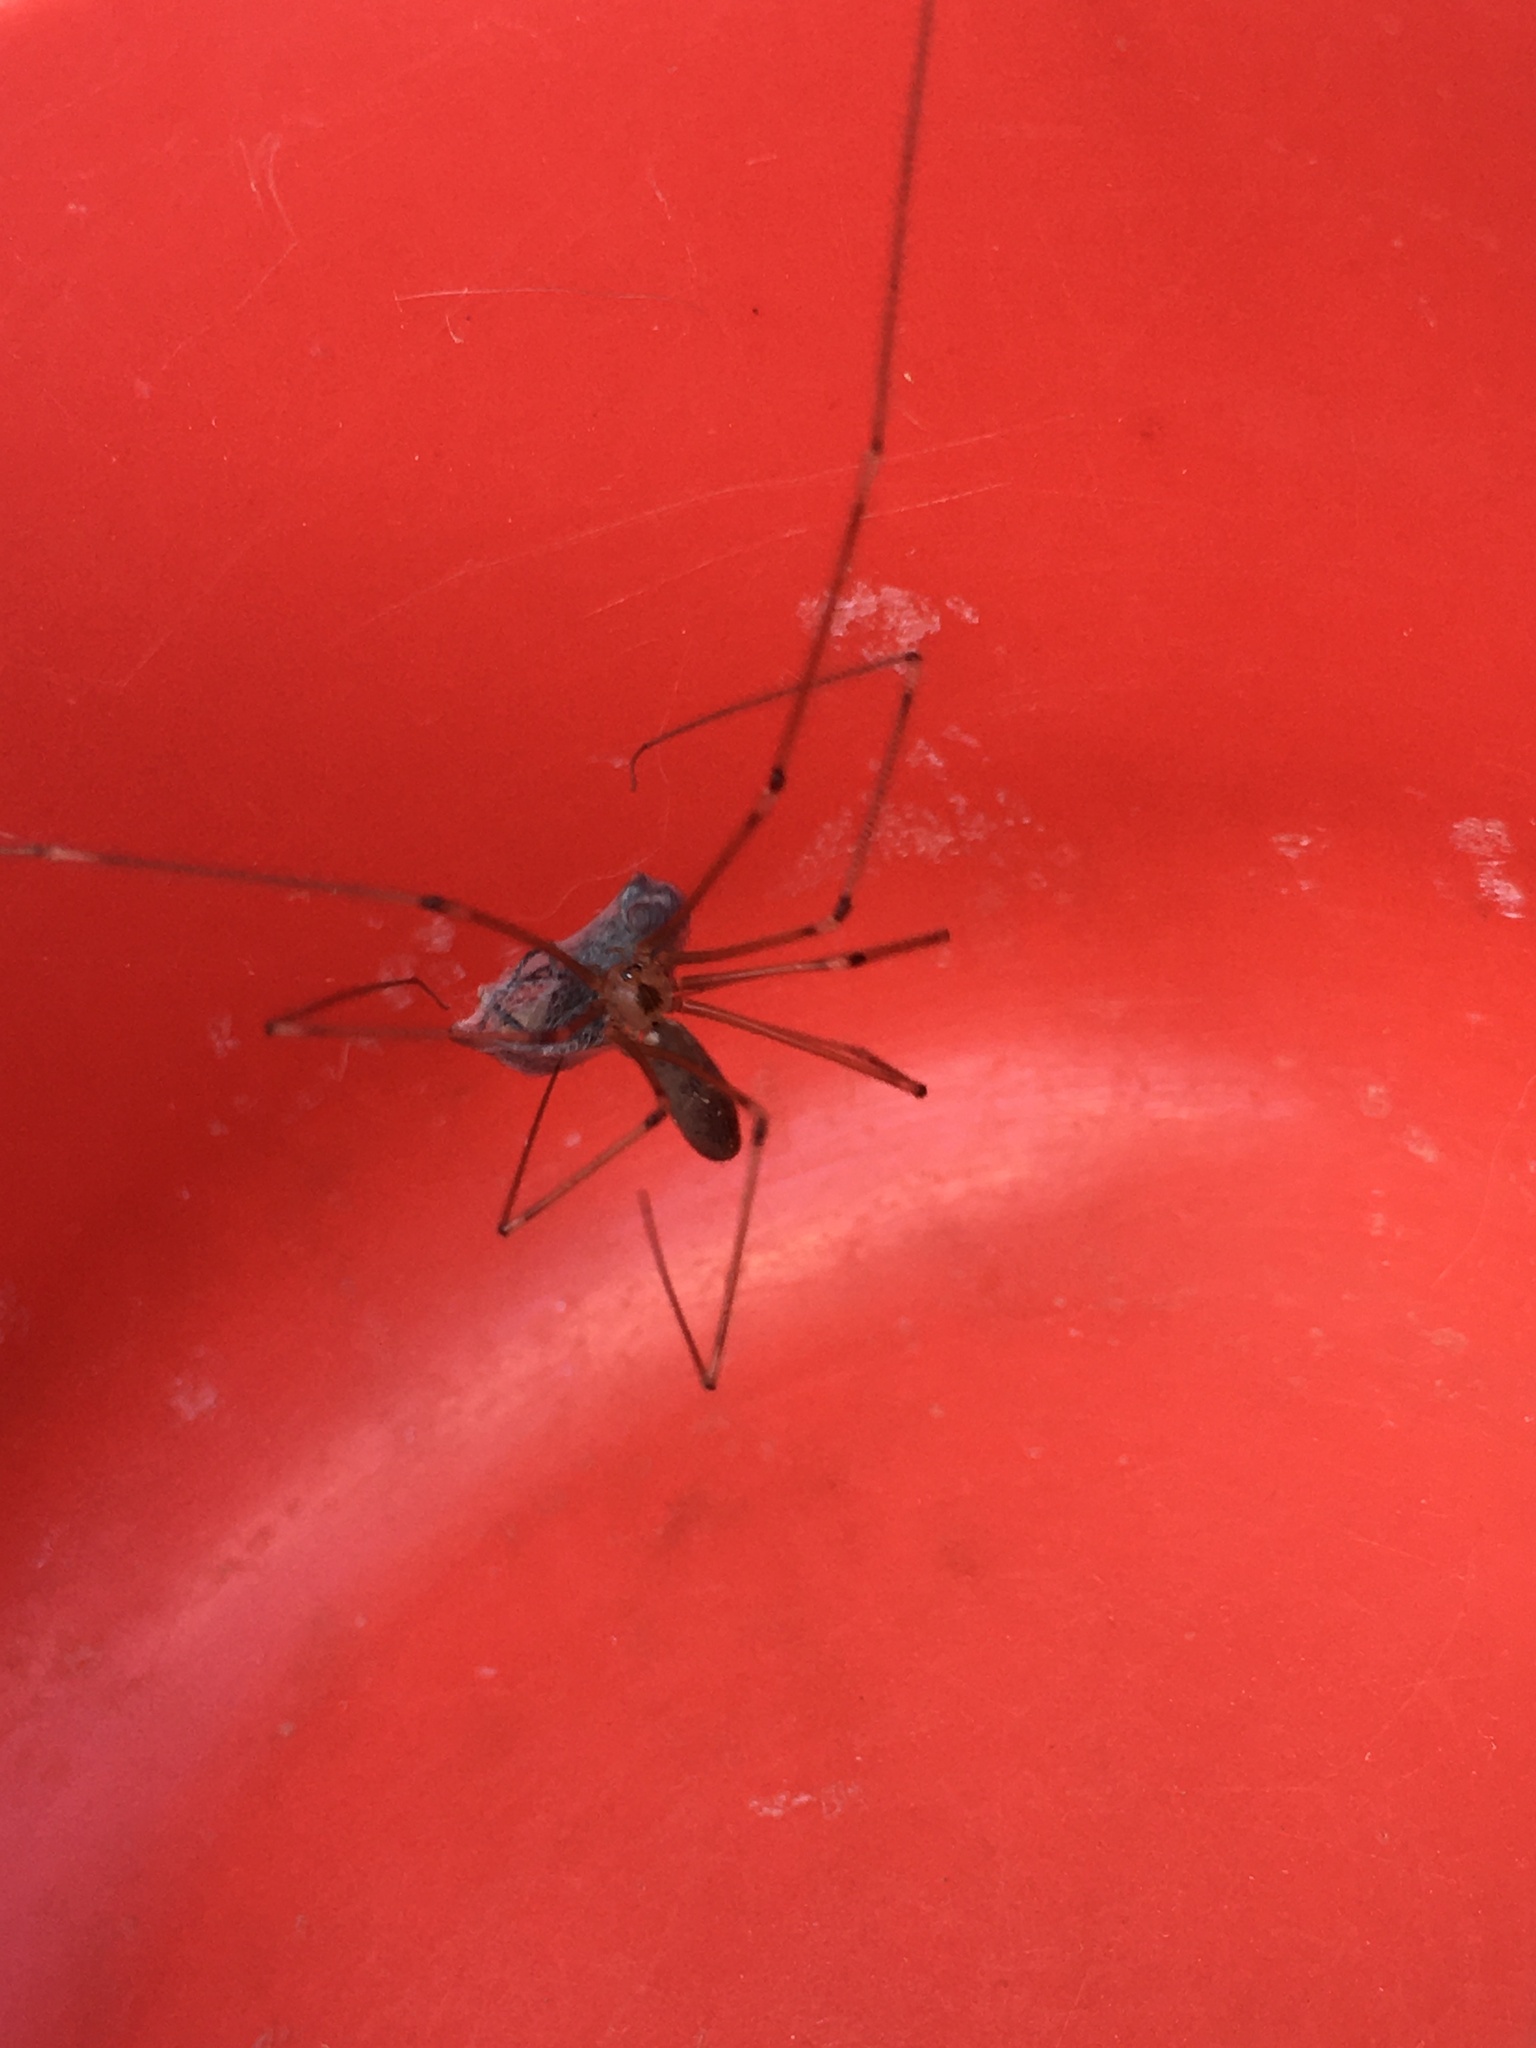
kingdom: Animalia
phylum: Arthropoda
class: Arachnida
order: Araneae
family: Pholcidae
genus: Pholcus
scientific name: Pholcus phalangioides
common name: Longbodied cellar spider
